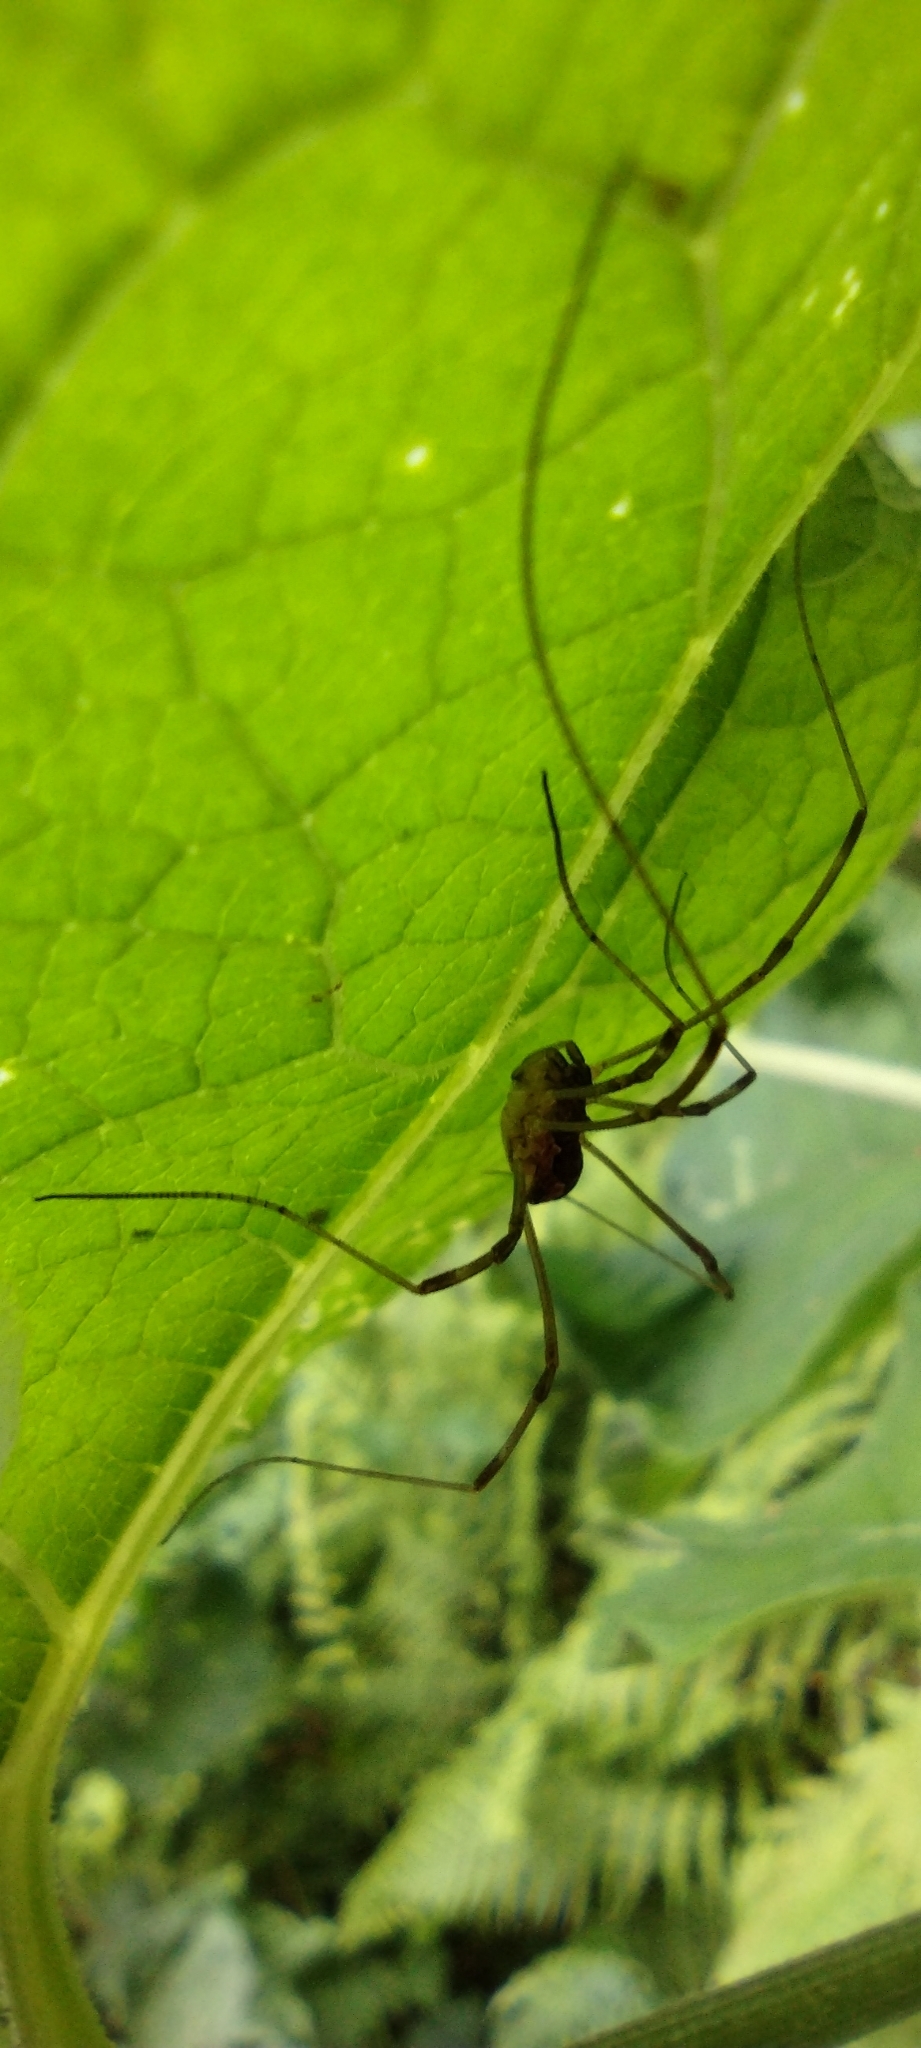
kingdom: Animalia
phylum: Arthropoda
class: Arachnida
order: Opiliones
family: Phalangiidae
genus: Mitopus
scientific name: Mitopus morio
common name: Saddleback harvestman
